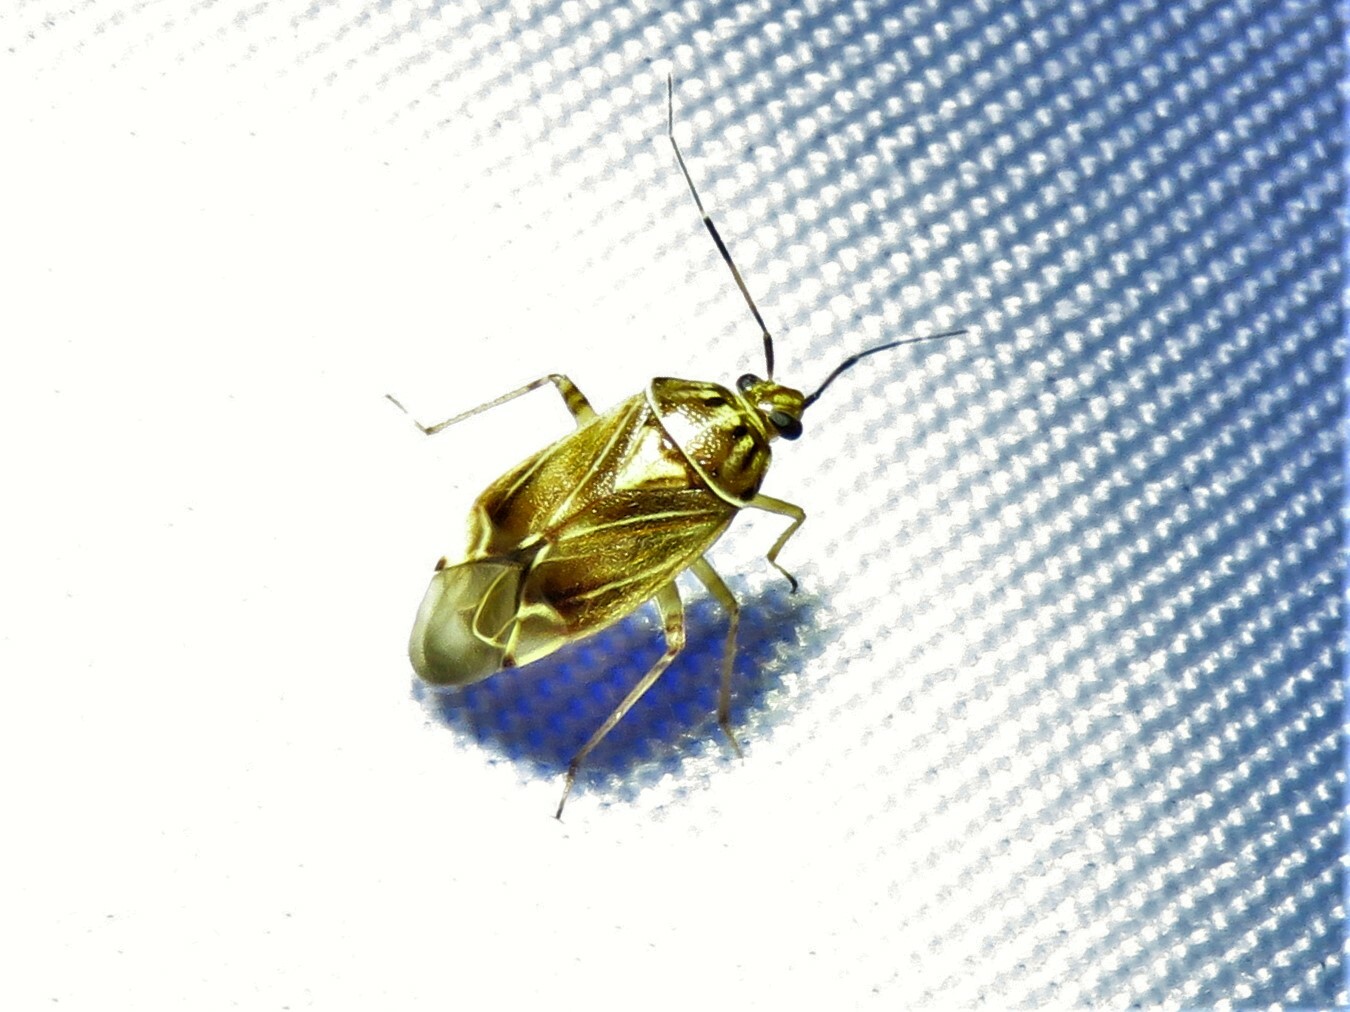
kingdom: Animalia
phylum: Arthropoda
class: Insecta
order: Hemiptera
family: Miridae
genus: Lygus
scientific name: Lygus lineolaris
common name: North american tarnished plant bug
